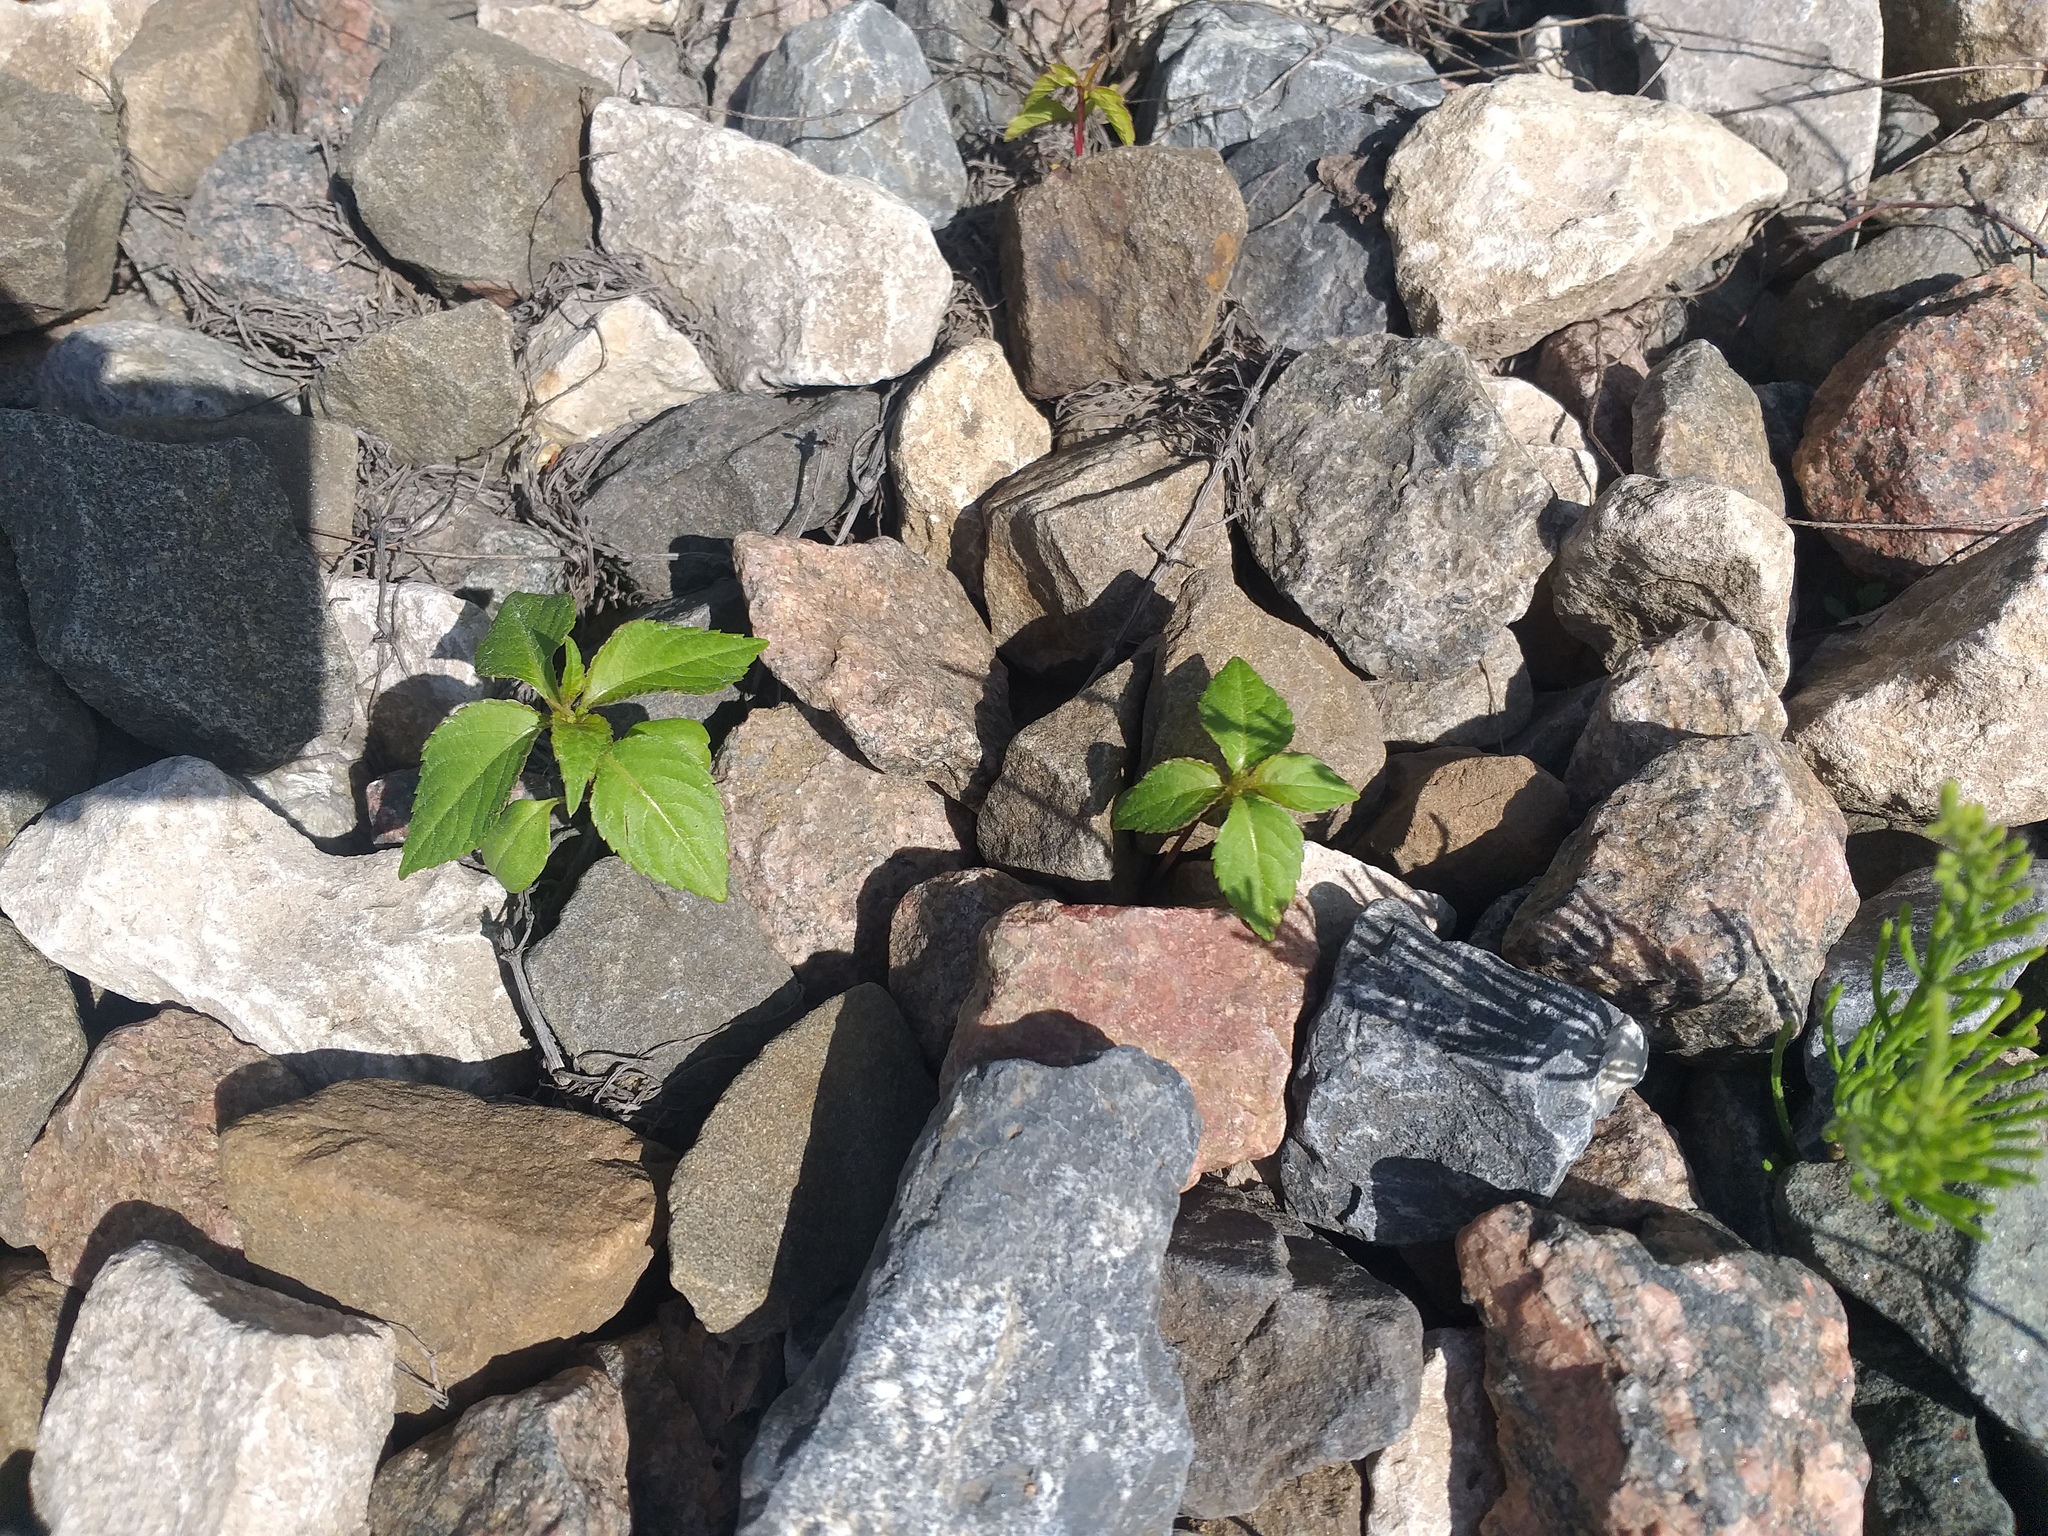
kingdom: Plantae
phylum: Tracheophyta
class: Magnoliopsida
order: Ericales
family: Balsaminaceae
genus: Impatiens
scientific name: Impatiens parviflora
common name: Small balsam
